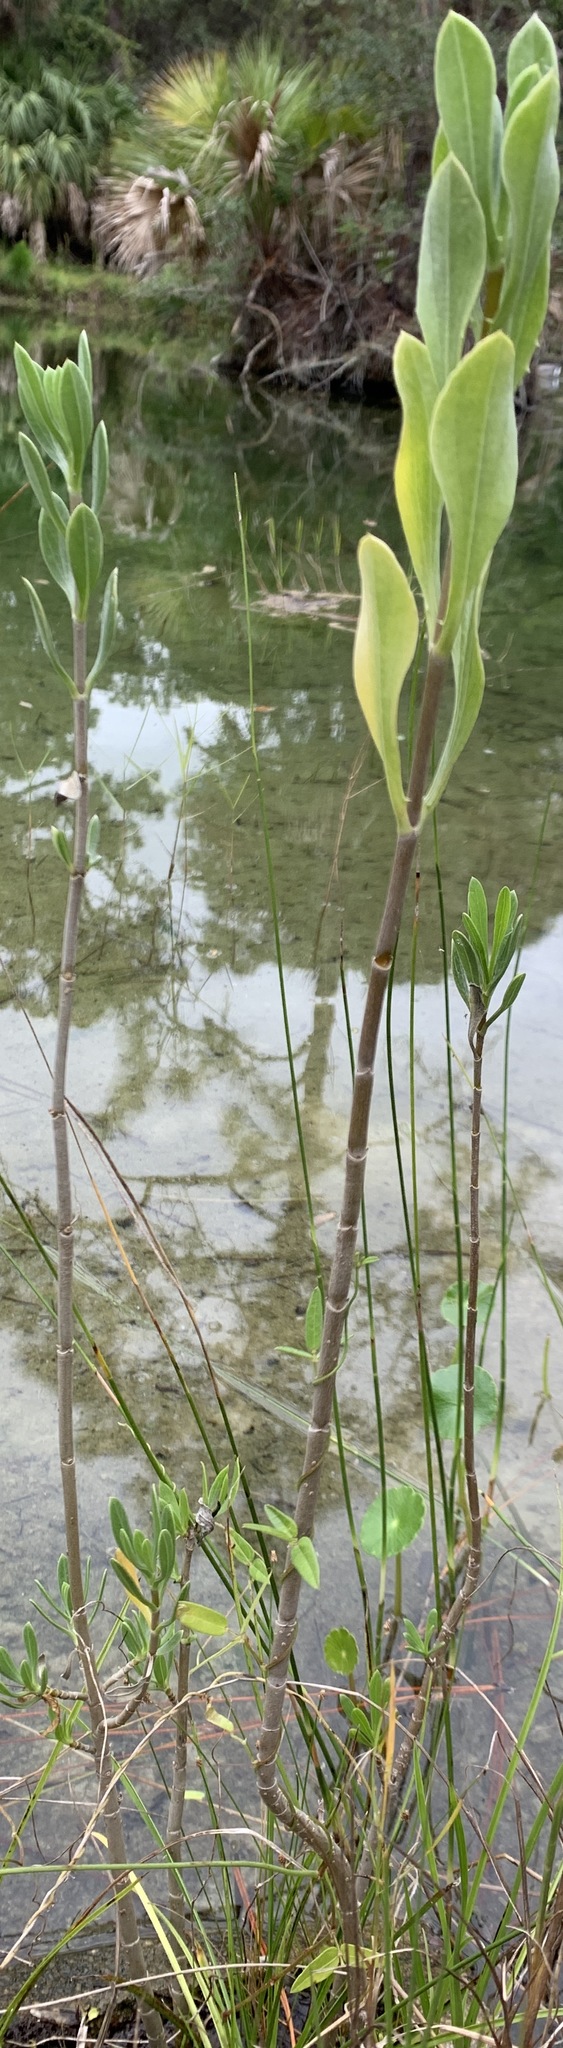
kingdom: Plantae
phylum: Tracheophyta
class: Magnoliopsida
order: Asterales
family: Asteraceae
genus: Borrichia
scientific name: Borrichia frutescens
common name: Sea oxeye
